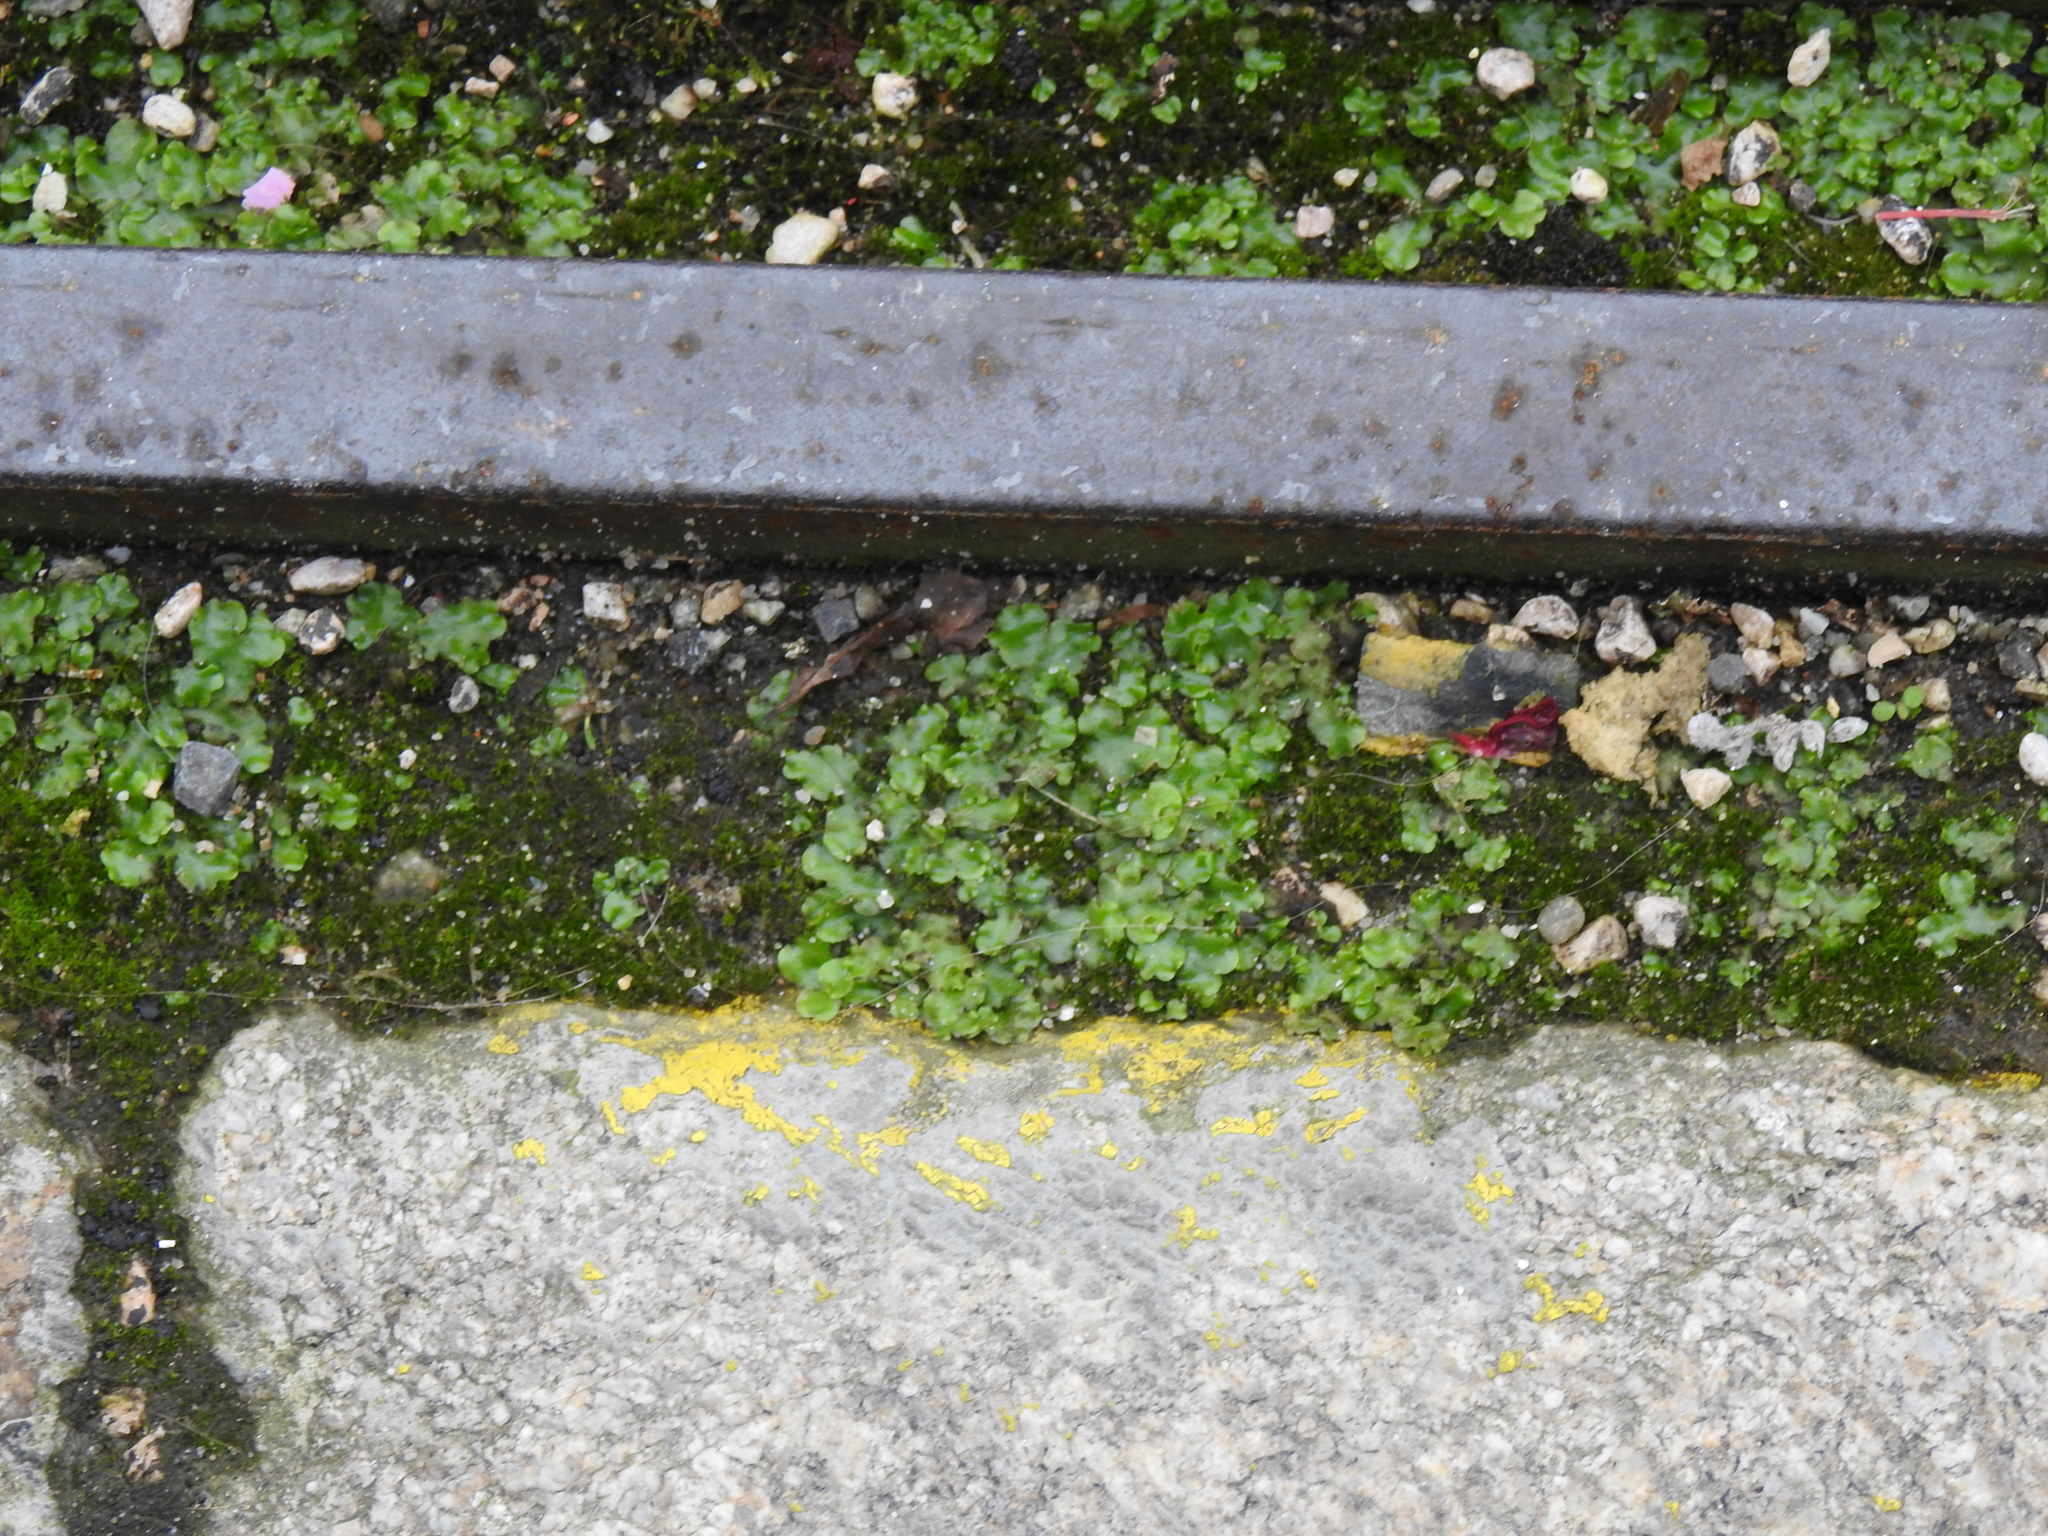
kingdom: Plantae
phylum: Marchantiophyta
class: Marchantiopsida
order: Lunulariales
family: Lunulariaceae
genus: Lunularia
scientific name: Lunularia cruciata
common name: Crescent-cup liverwort
